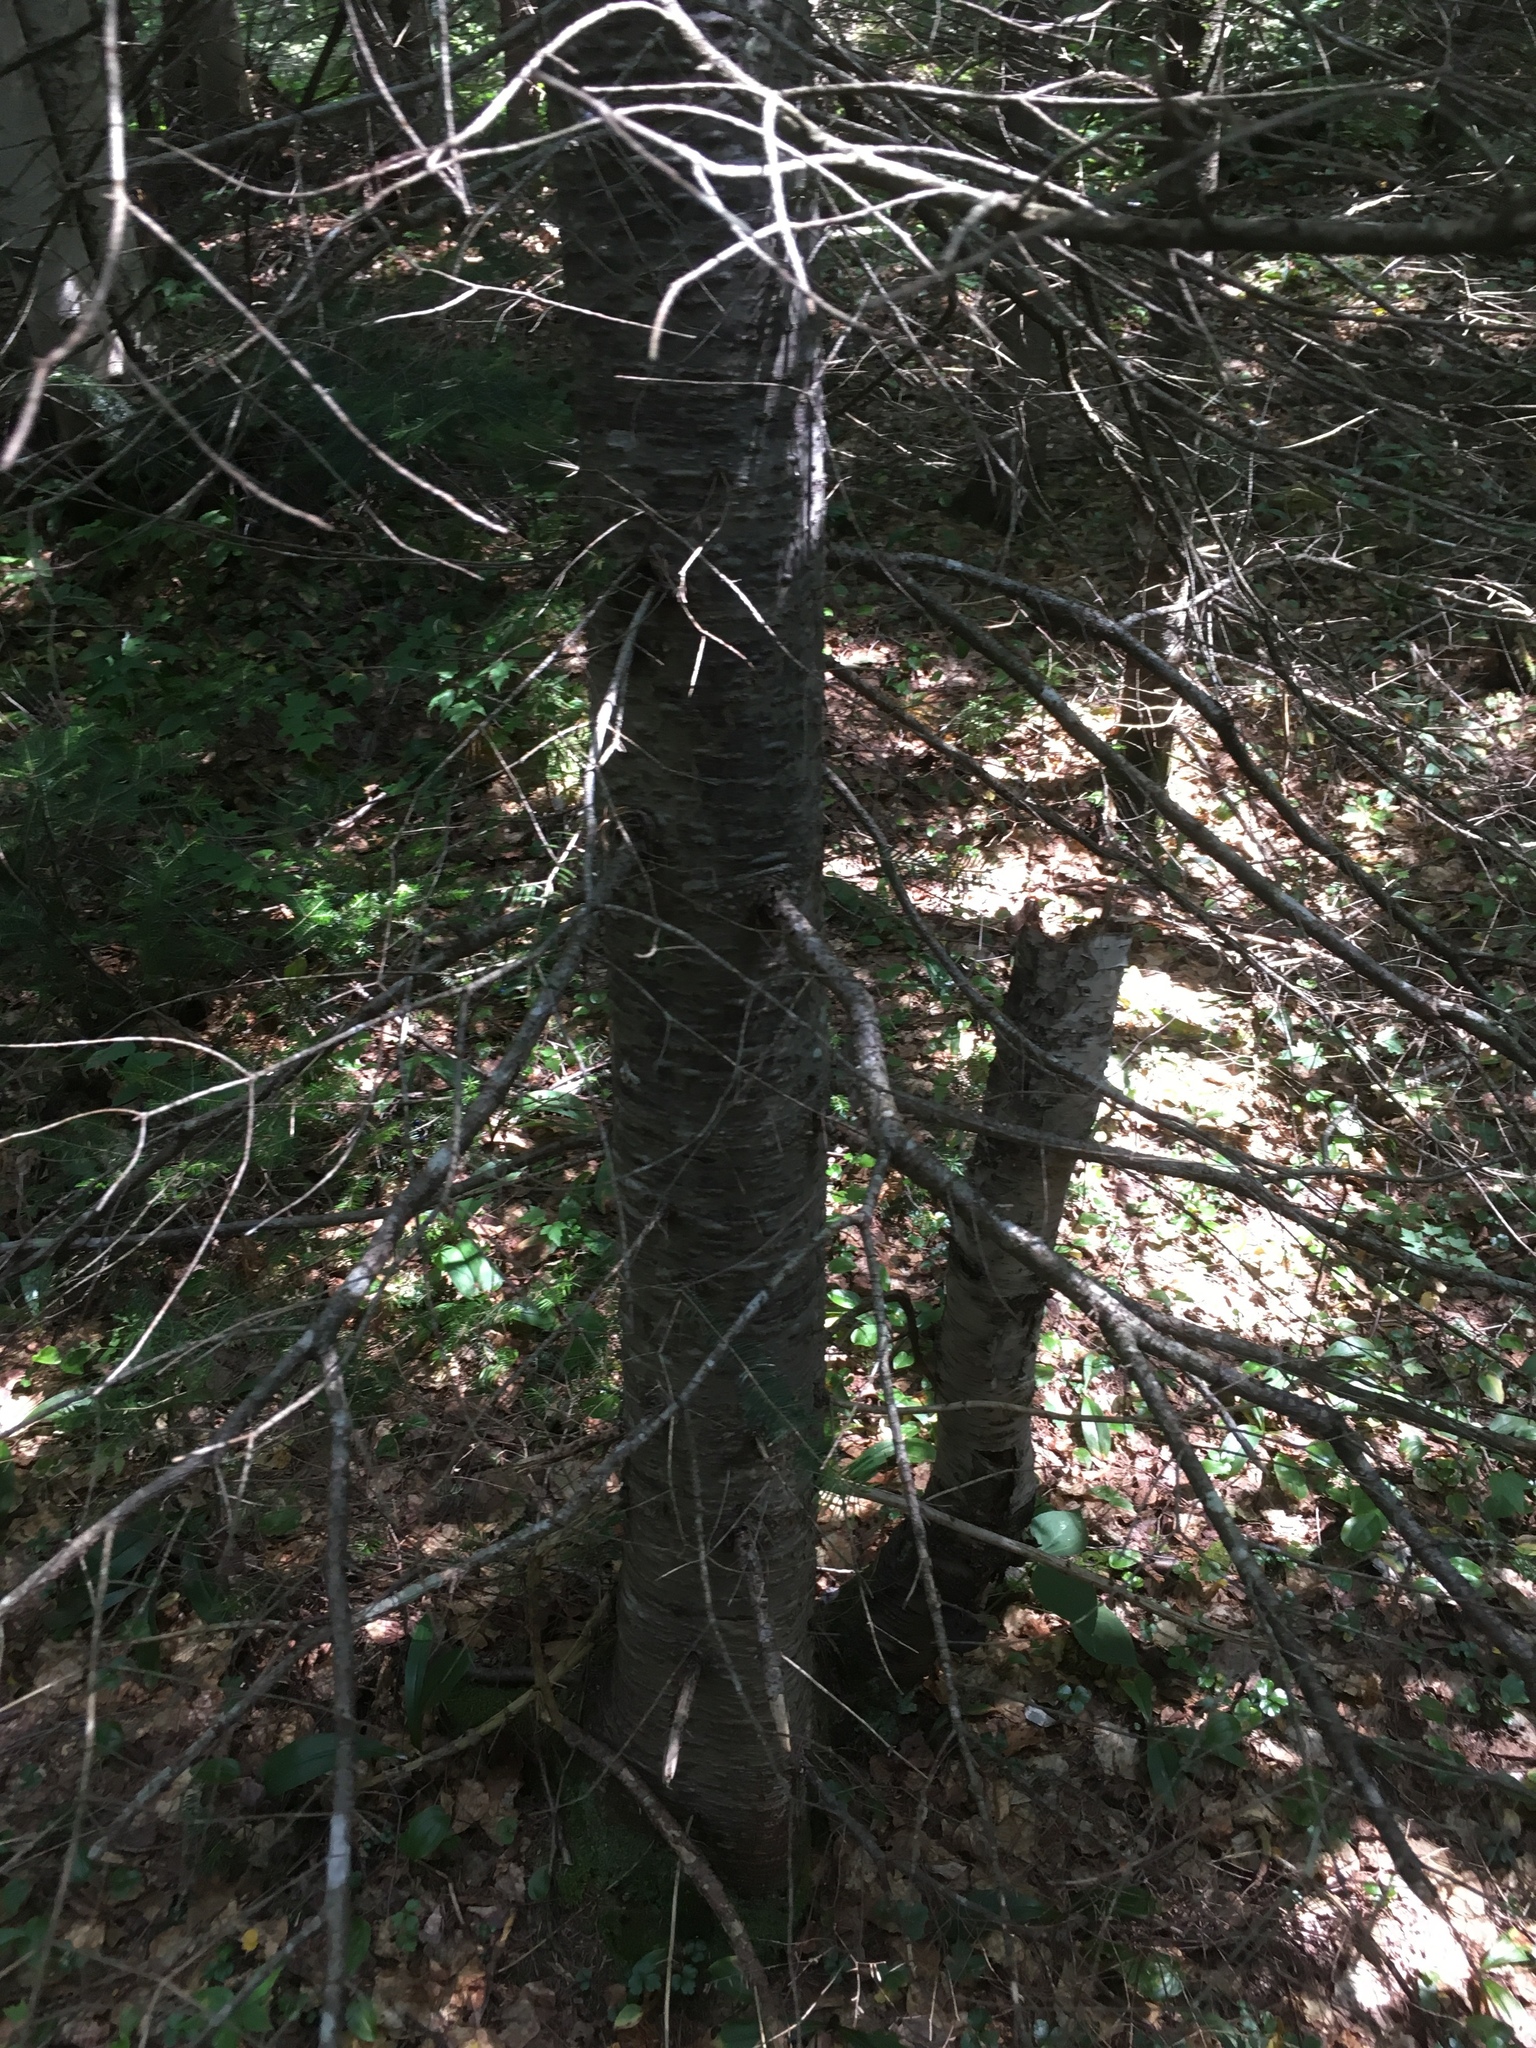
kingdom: Plantae
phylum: Tracheophyta
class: Pinopsida
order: Pinales
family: Pinaceae
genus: Abies
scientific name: Abies balsamea
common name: Balsam fir
